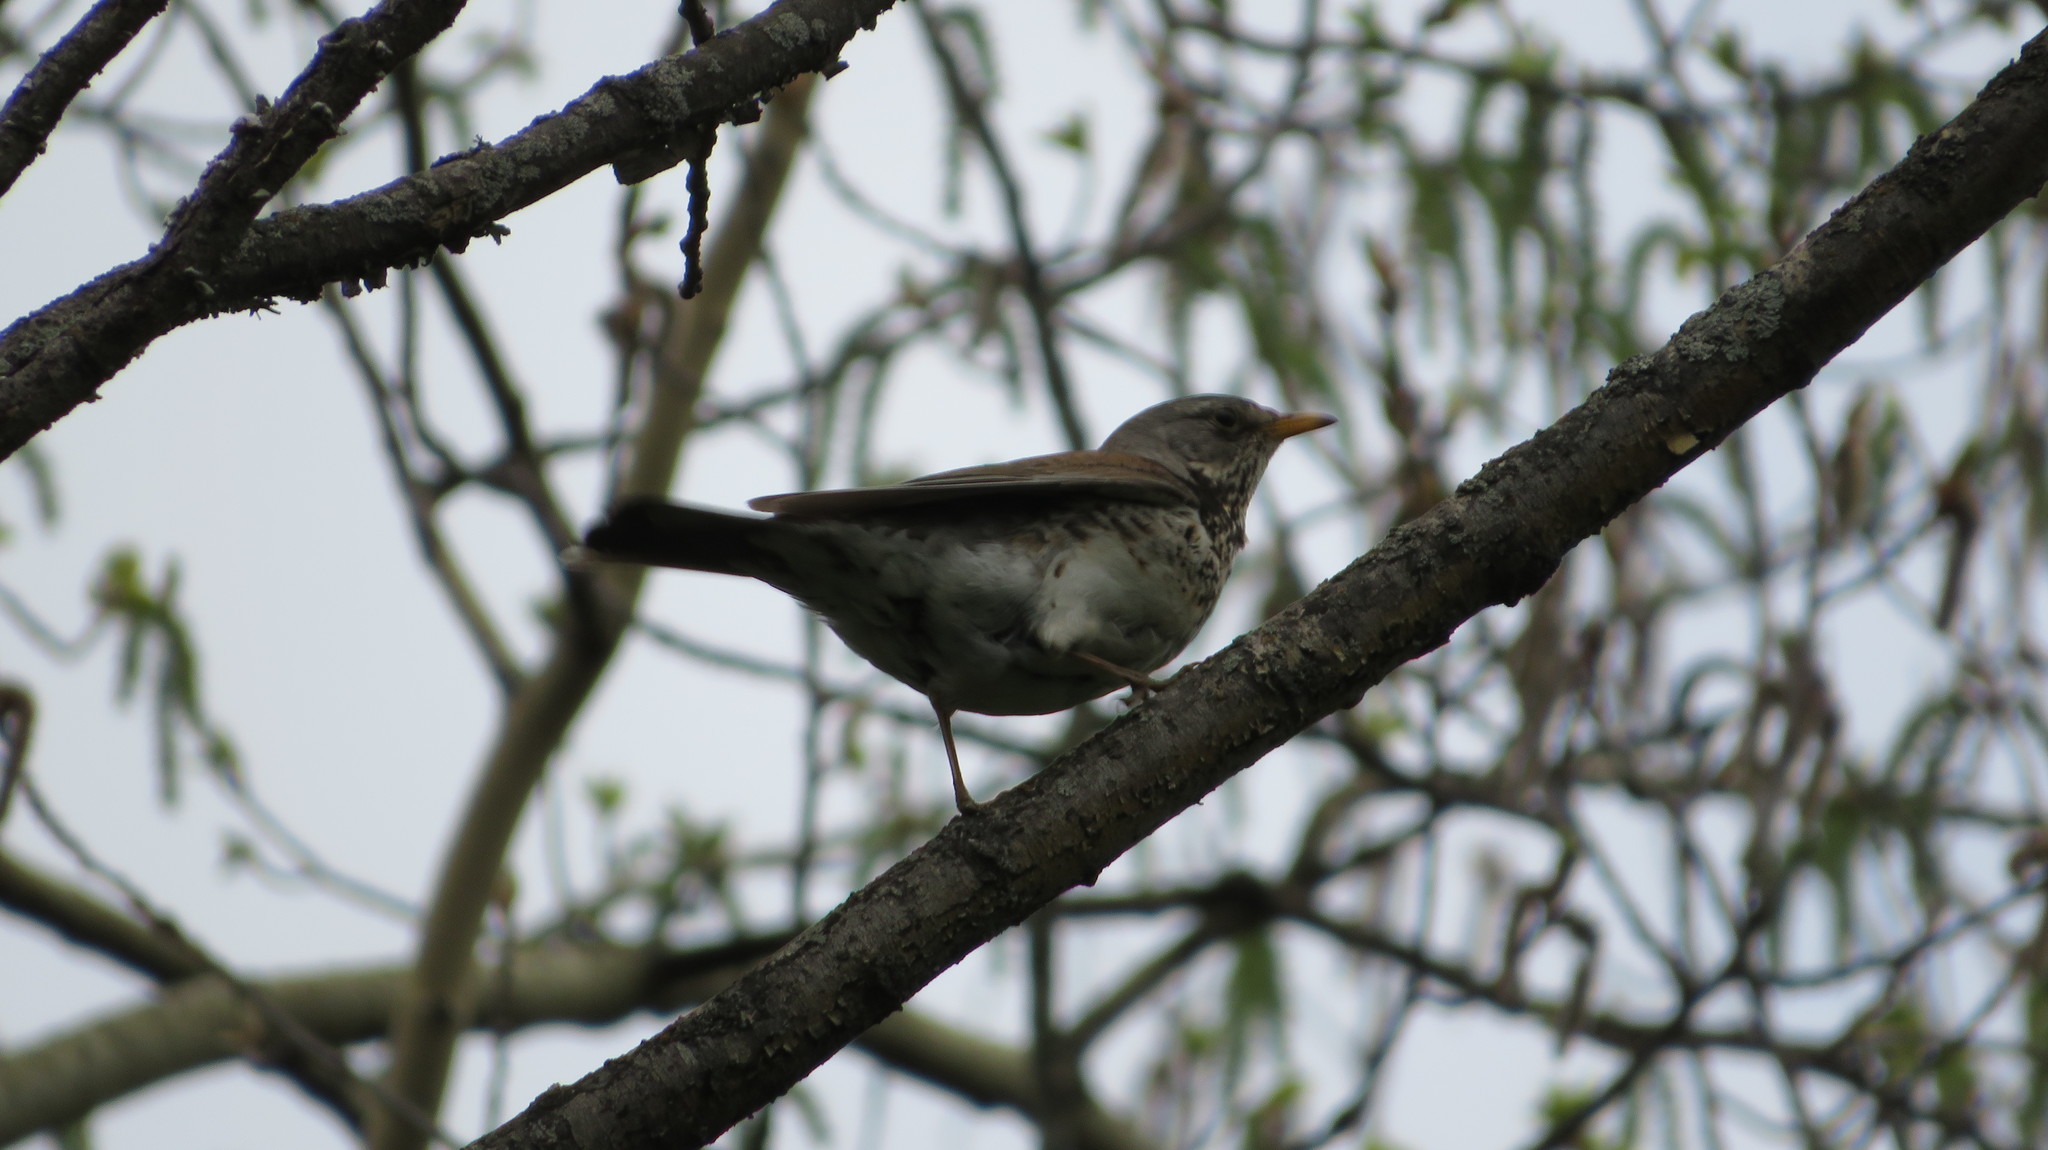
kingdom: Animalia
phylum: Chordata
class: Aves
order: Passeriformes
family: Turdidae
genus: Turdus
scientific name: Turdus pilaris
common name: Fieldfare
